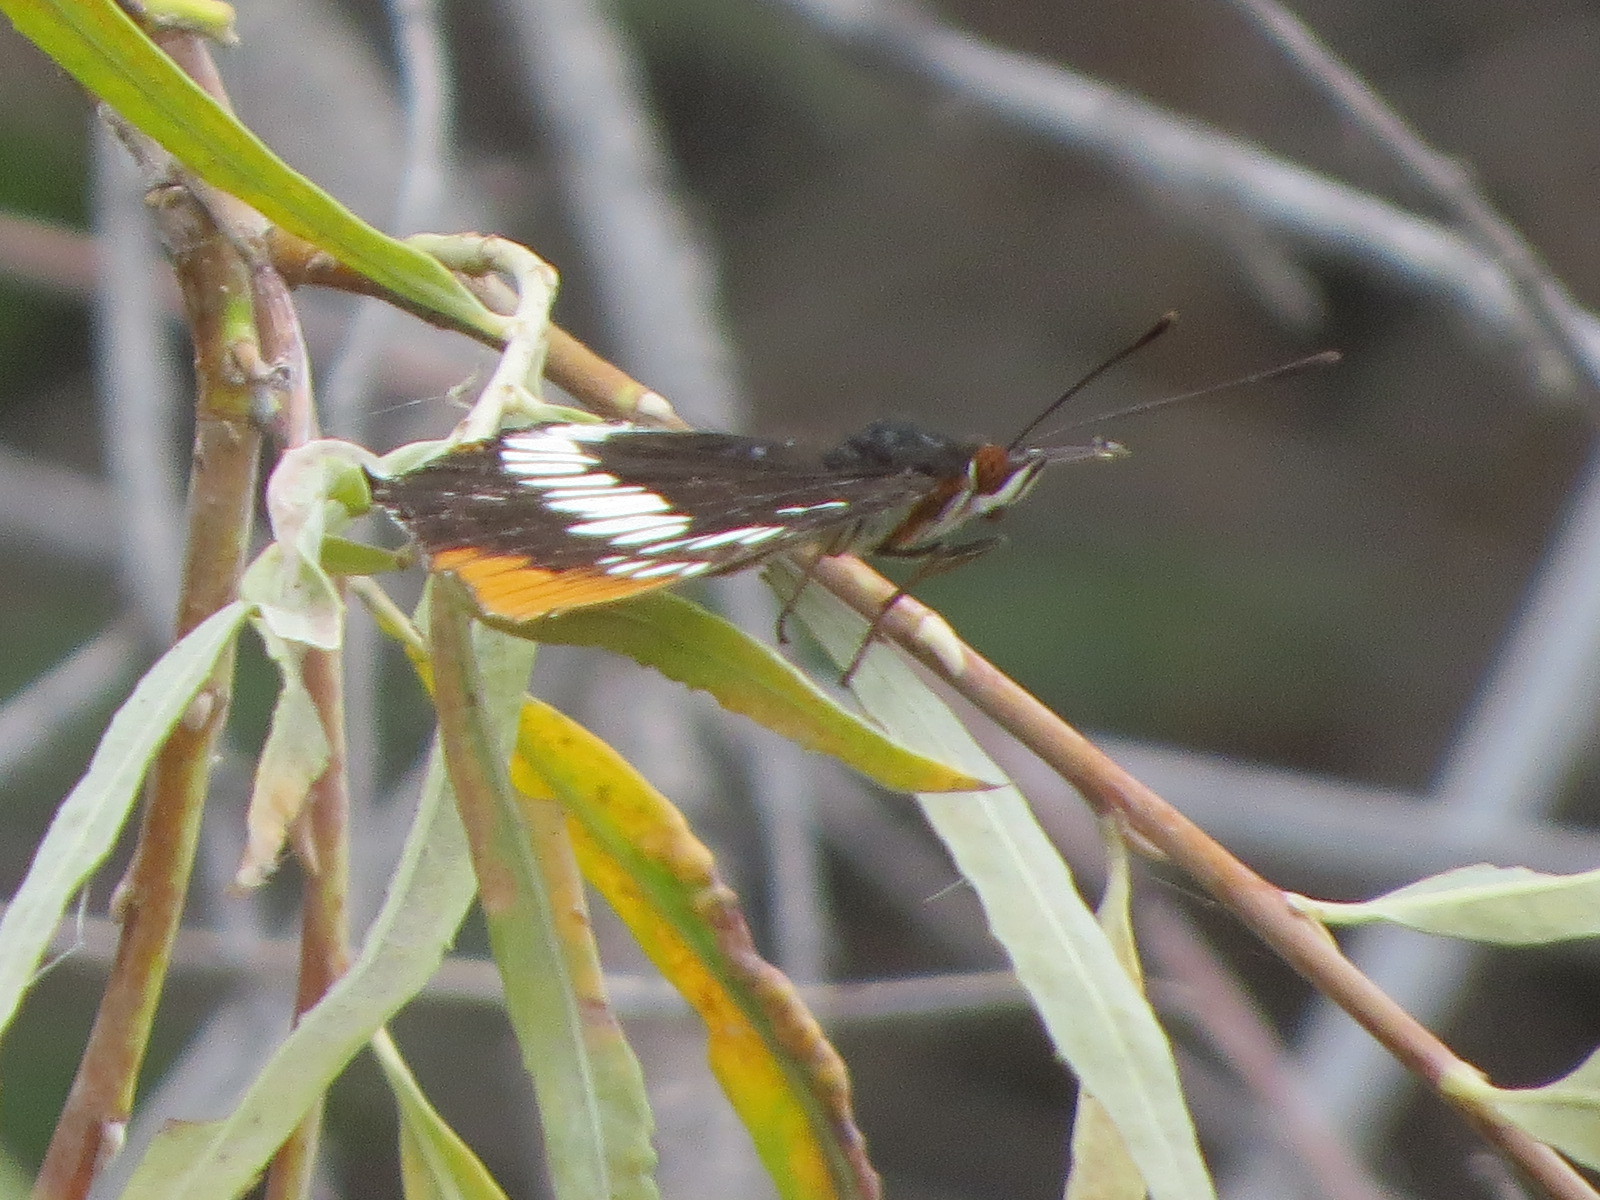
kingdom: Animalia
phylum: Arthropoda
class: Insecta
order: Lepidoptera
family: Nymphalidae
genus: Limenitis
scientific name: Limenitis lorquini
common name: Lorquin's admiral
